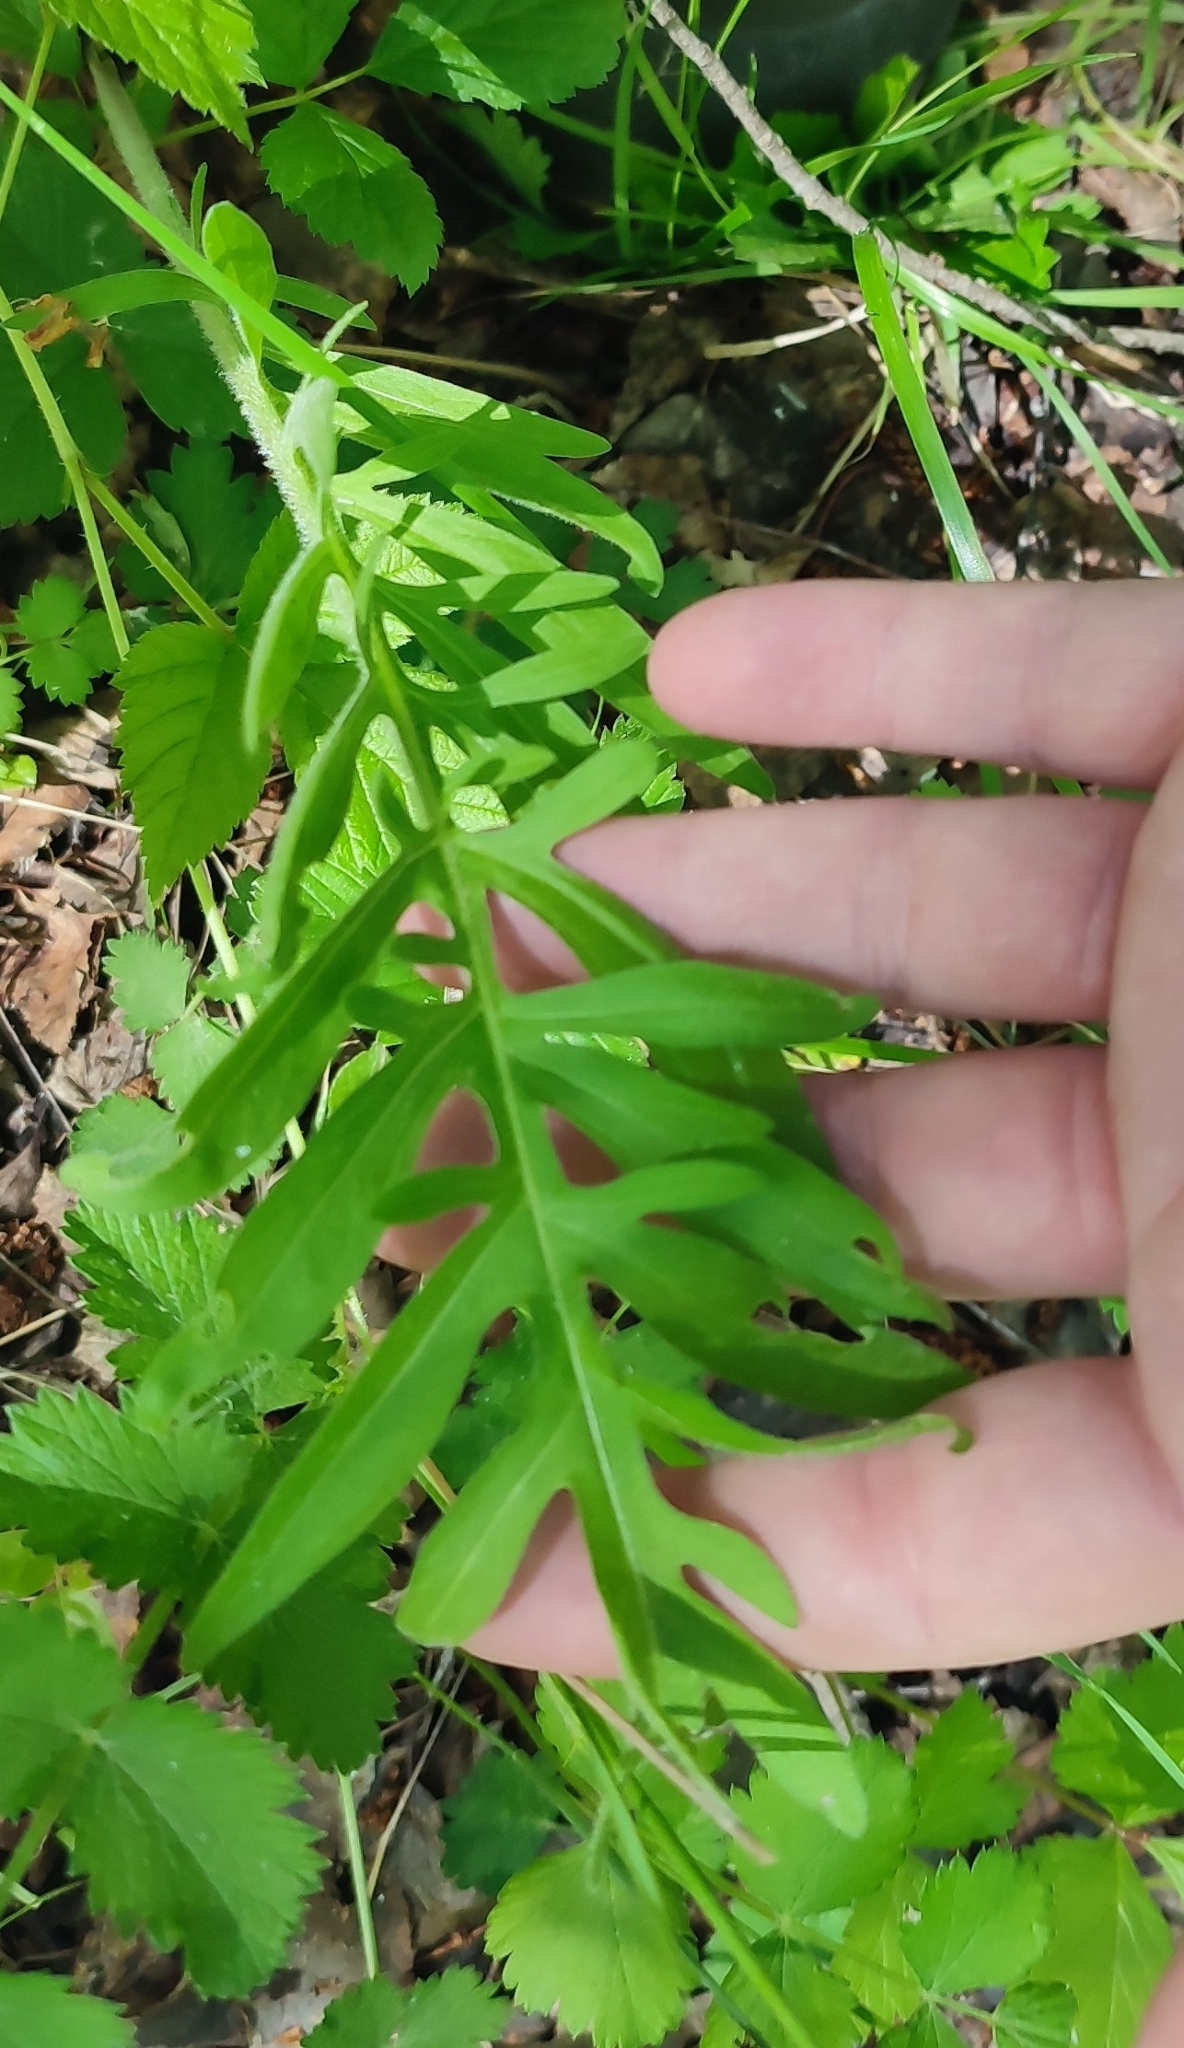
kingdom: Plantae
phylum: Tracheophyta
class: Magnoliopsida
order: Asterales
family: Asteraceae
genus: Centaurea
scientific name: Centaurea scabiosa
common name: Greater knapweed
